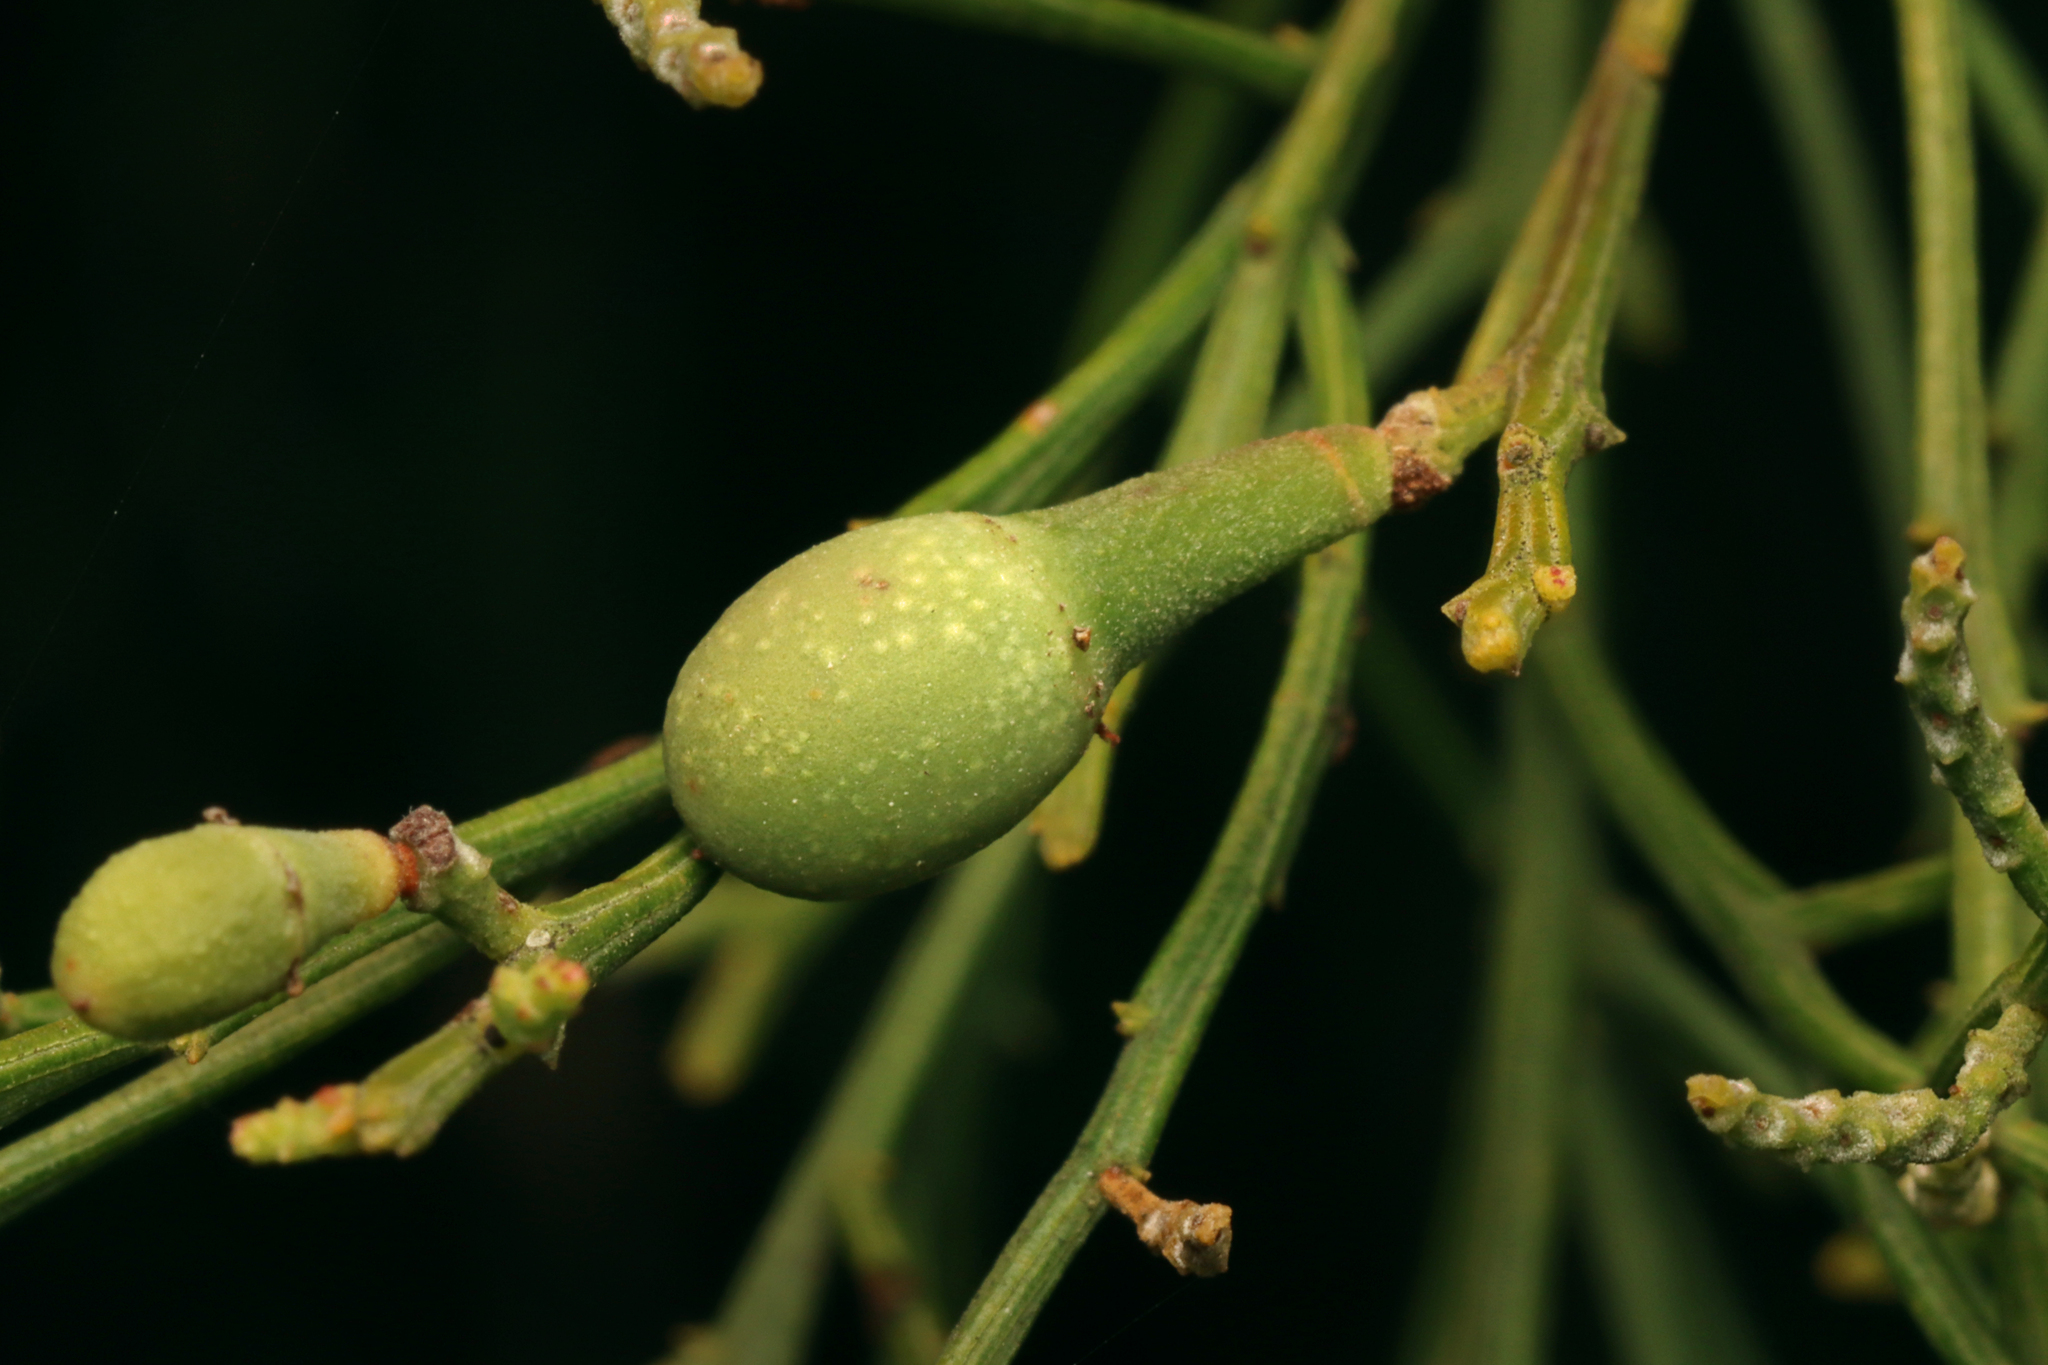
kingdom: Plantae
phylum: Tracheophyta
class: Magnoliopsida
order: Santalales
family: Santalaceae
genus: Exocarpos
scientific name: Exocarpos cupressiformis
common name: Cherry ballart
